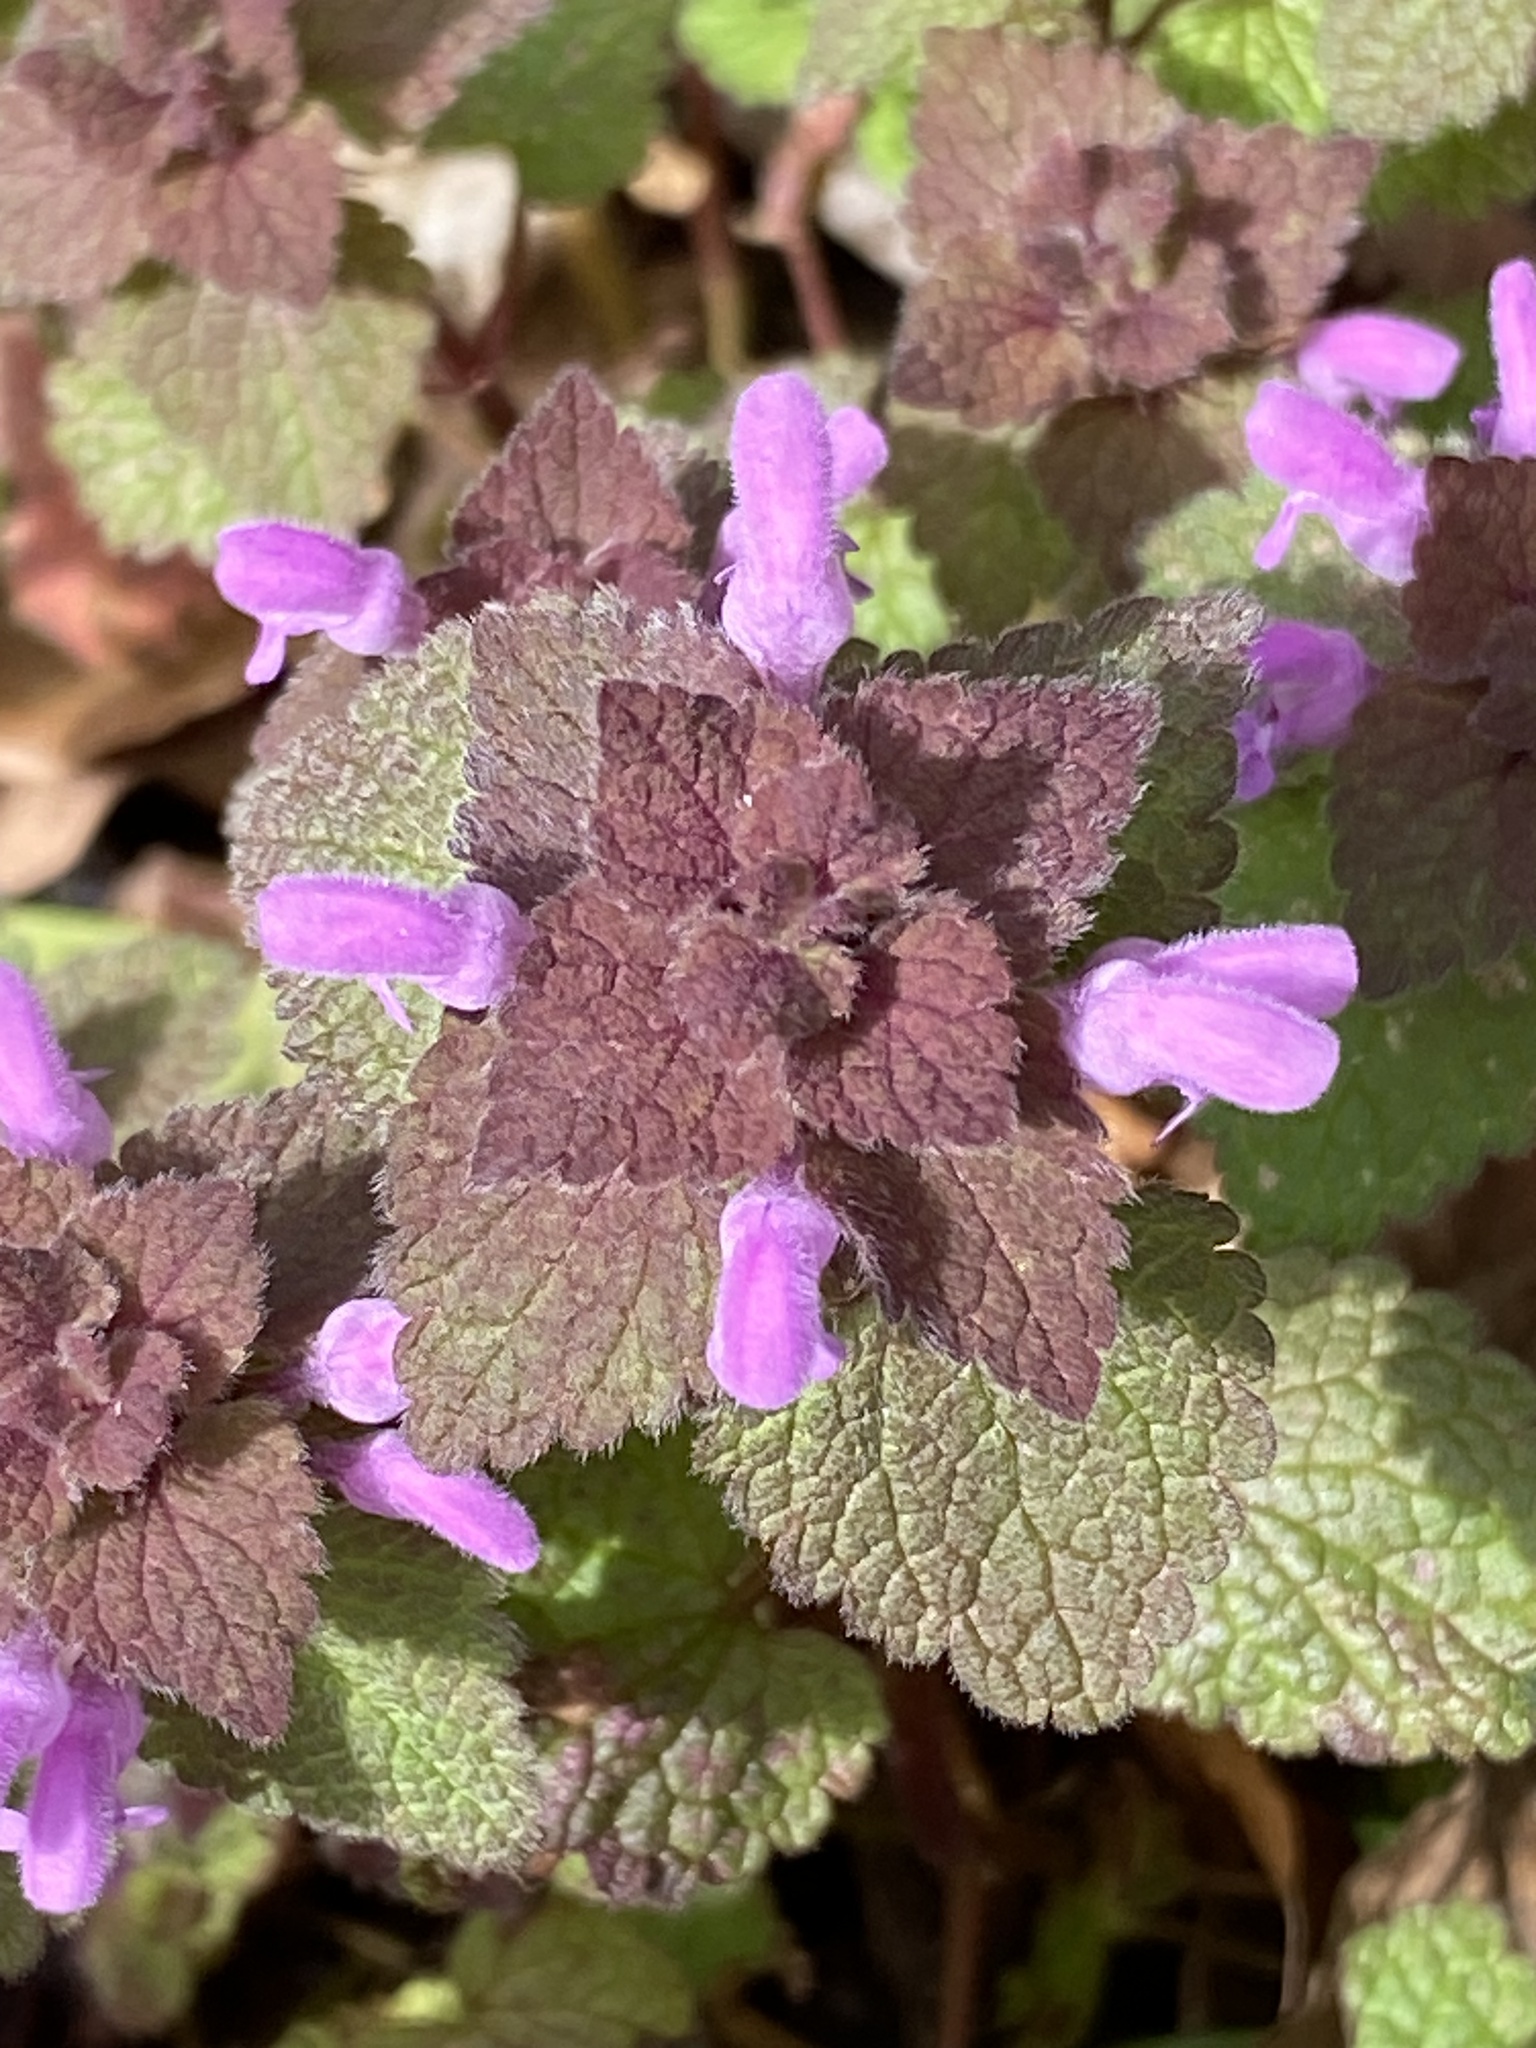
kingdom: Plantae
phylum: Tracheophyta
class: Magnoliopsida
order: Lamiales
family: Lamiaceae
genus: Lamium
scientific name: Lamium purpureum
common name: Red dead-nettle
